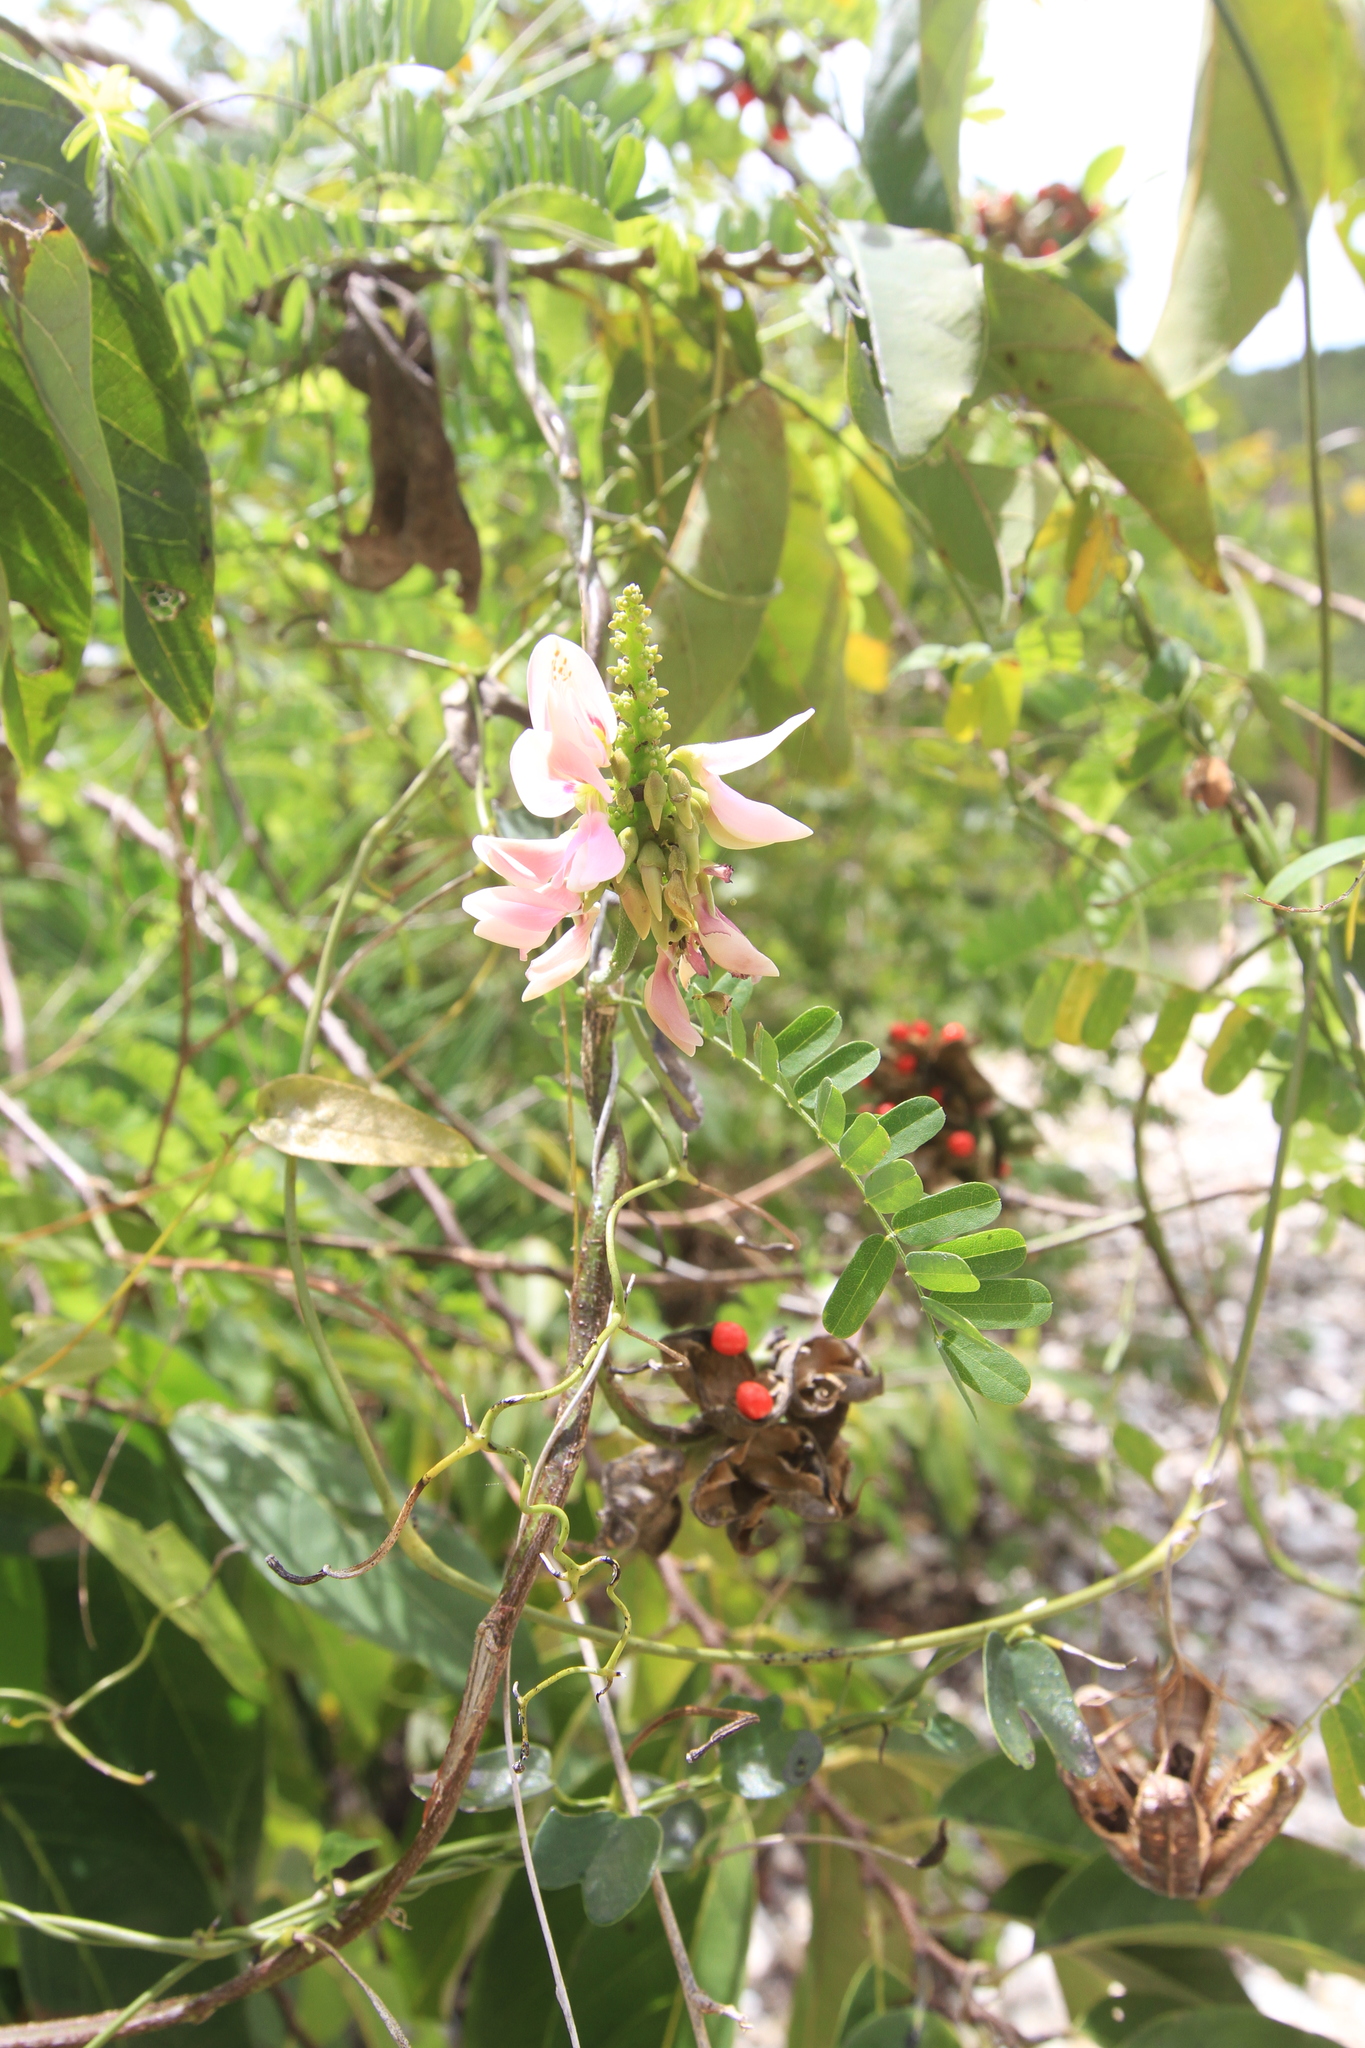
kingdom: Plantae
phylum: Tracheophyta
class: Magnoliopsida
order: Fabales
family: Fabaceae
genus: Abrus
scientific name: Abrus precatorius
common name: Rosarypea
